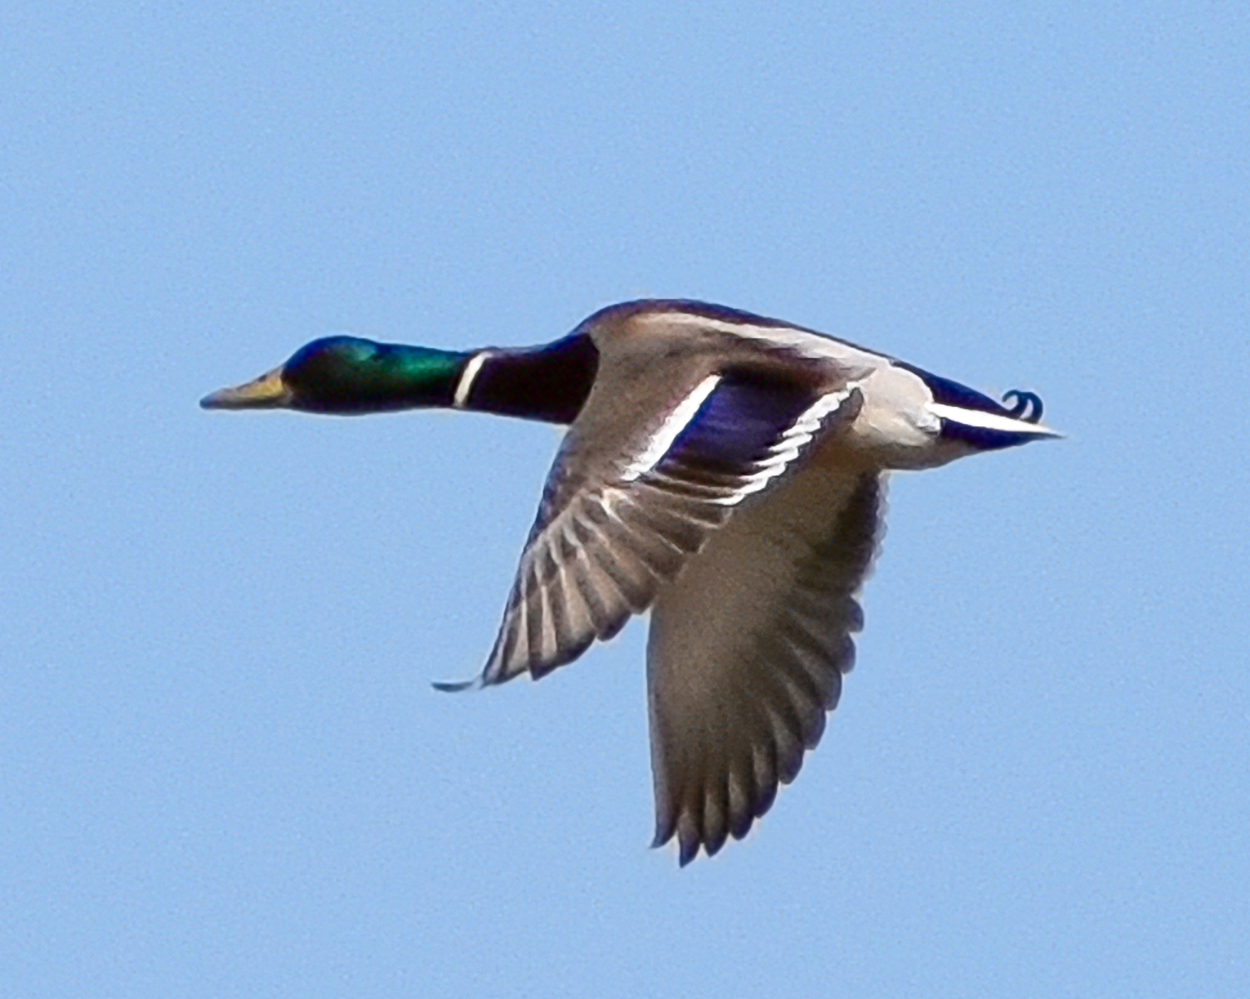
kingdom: Animalia
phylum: Chordata
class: Aves
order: Anseriformes
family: Anatidae
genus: Anas
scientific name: Anas platyrhynchos
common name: Mallard
